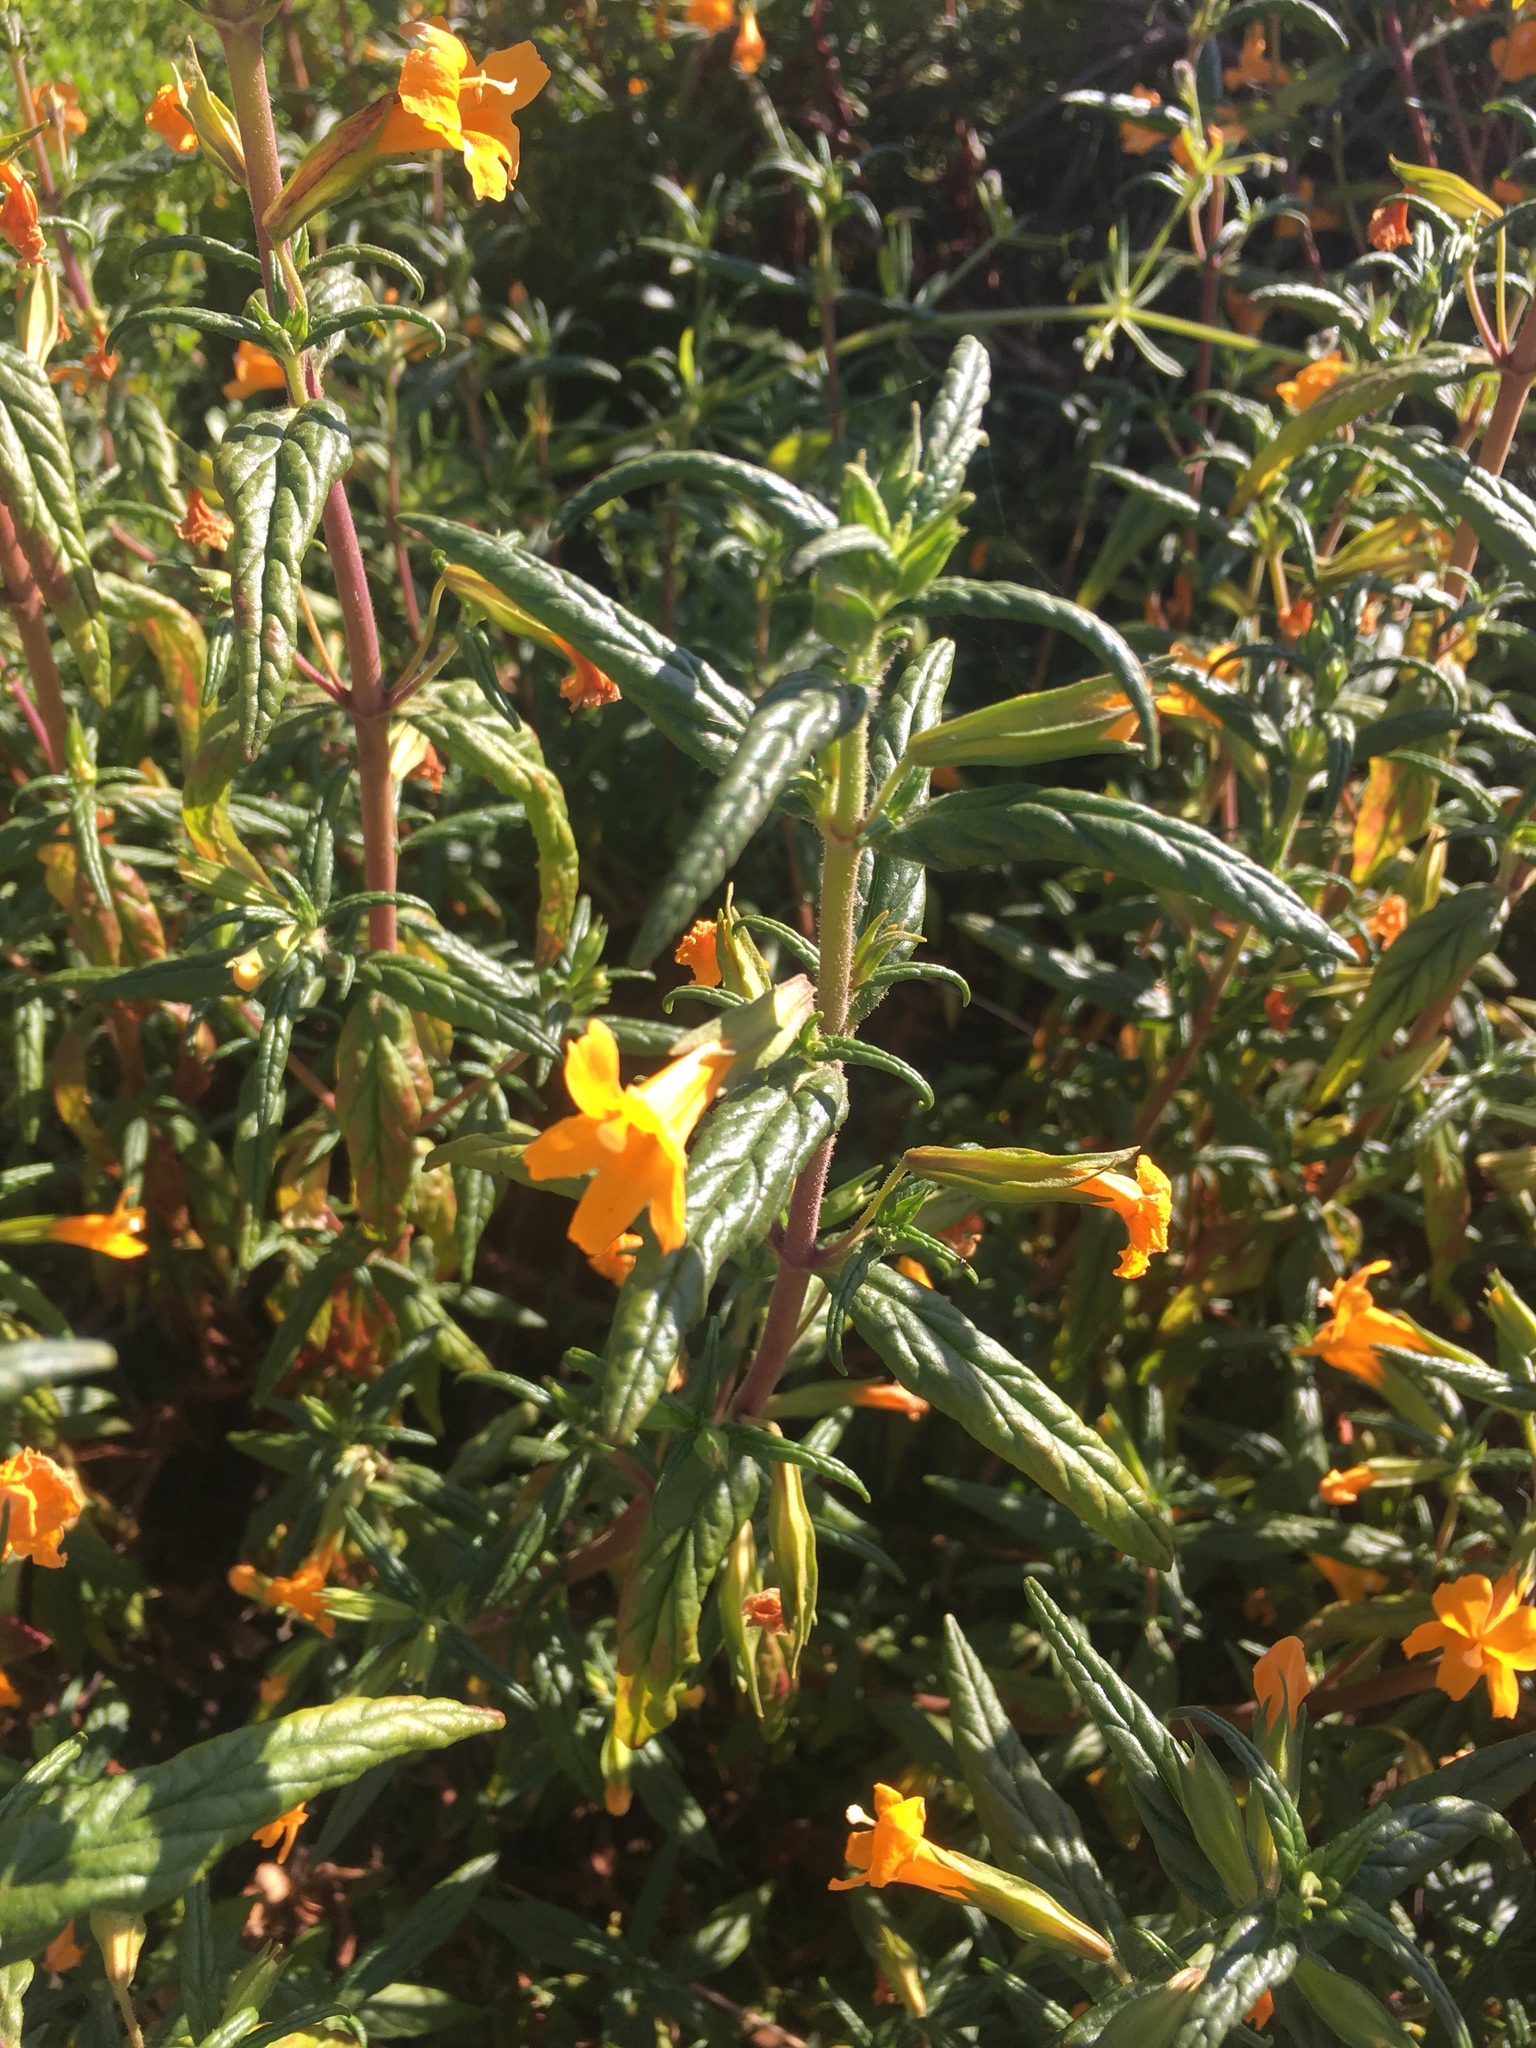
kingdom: Plantae
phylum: Tracheophyta
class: Magnoliopsida
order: Lamiales
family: Phrymaceae
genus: Diplacus
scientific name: Diplacus aurantiacus
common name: Bush monkey-flower
